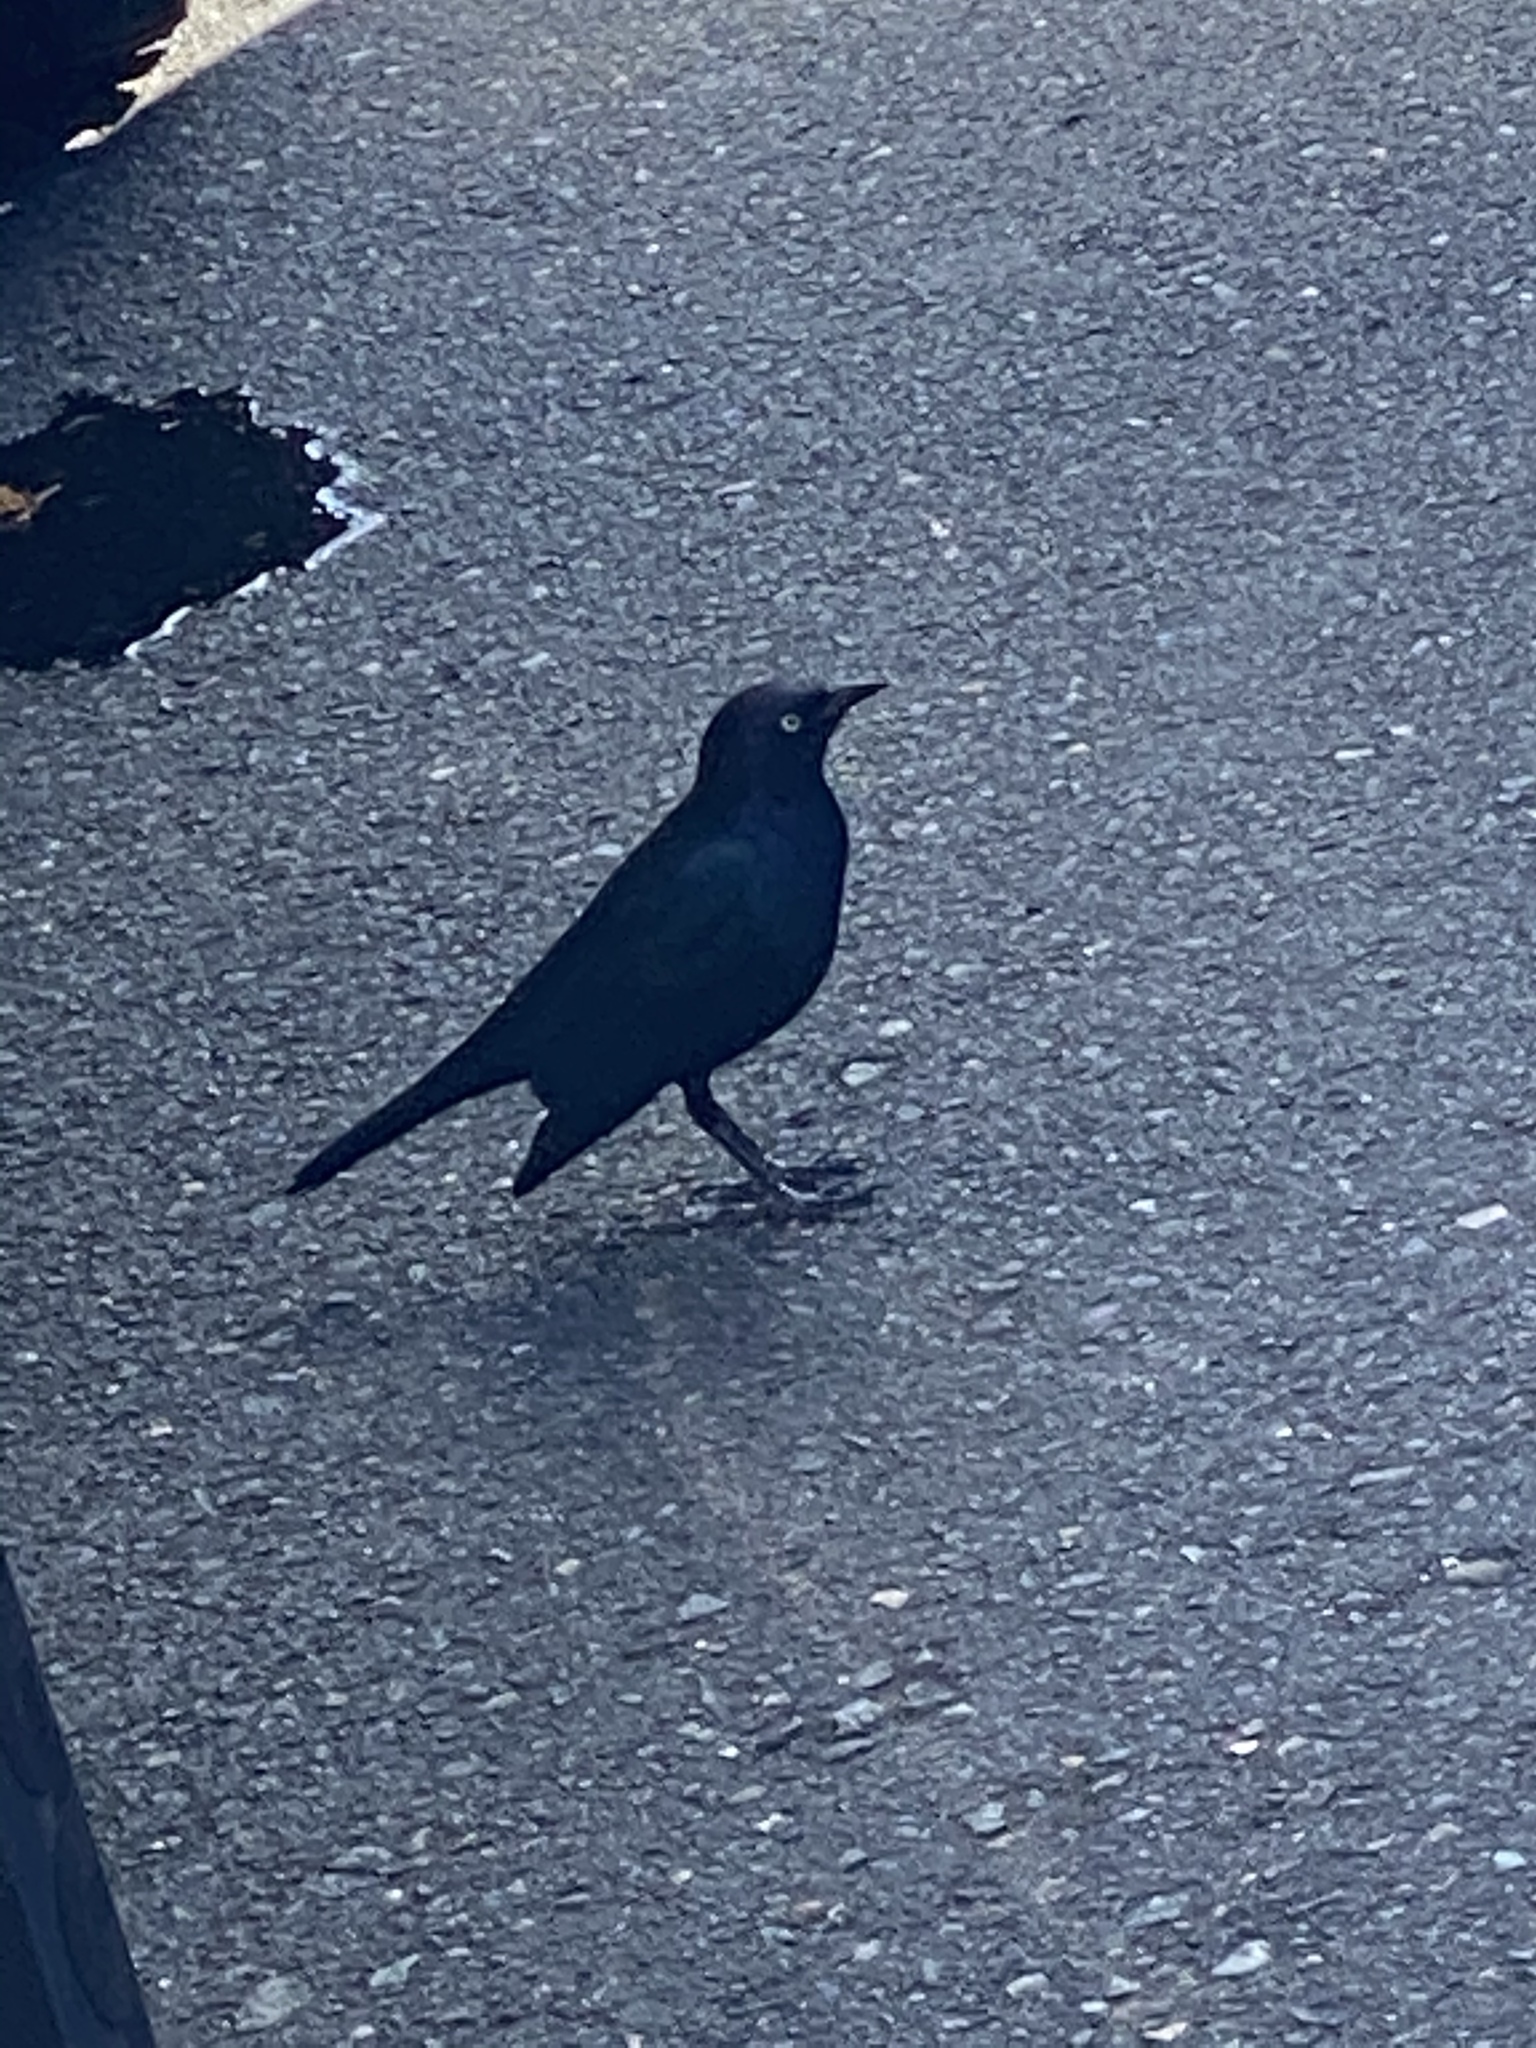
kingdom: Animalia
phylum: Chordata
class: Aves
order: Passeriformes
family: Icteridae
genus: Euphagus
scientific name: Euphagus cyanocephalus
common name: Brewer's blackbird
